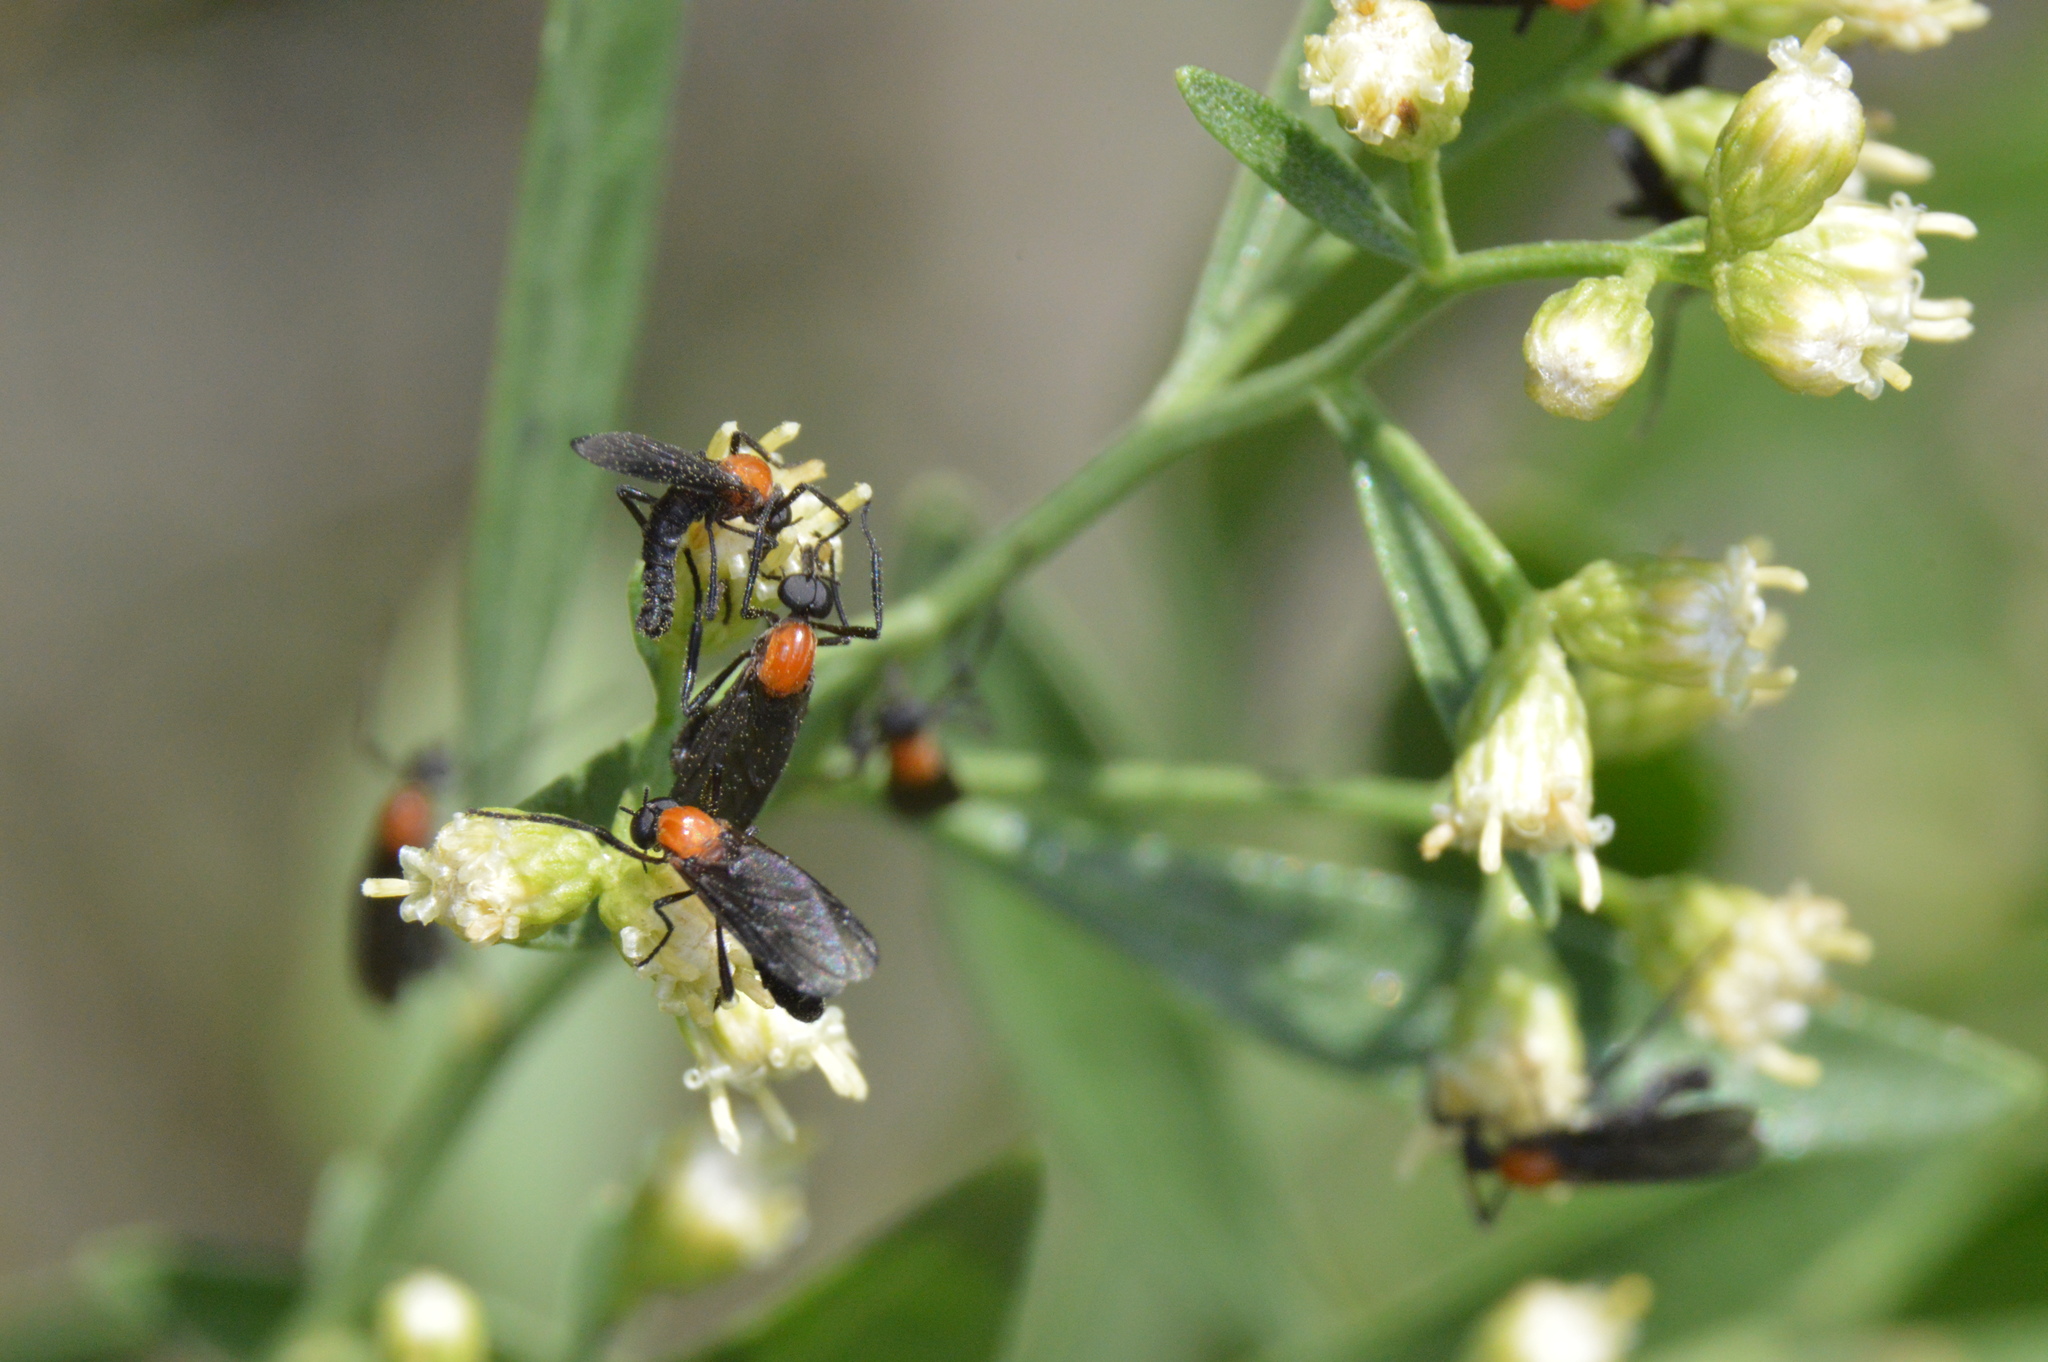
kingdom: Animalia
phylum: Arthropoda
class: Insecta
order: Diptera
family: Bibionidae
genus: Plecia
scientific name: Plecia nearctica
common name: March fly
